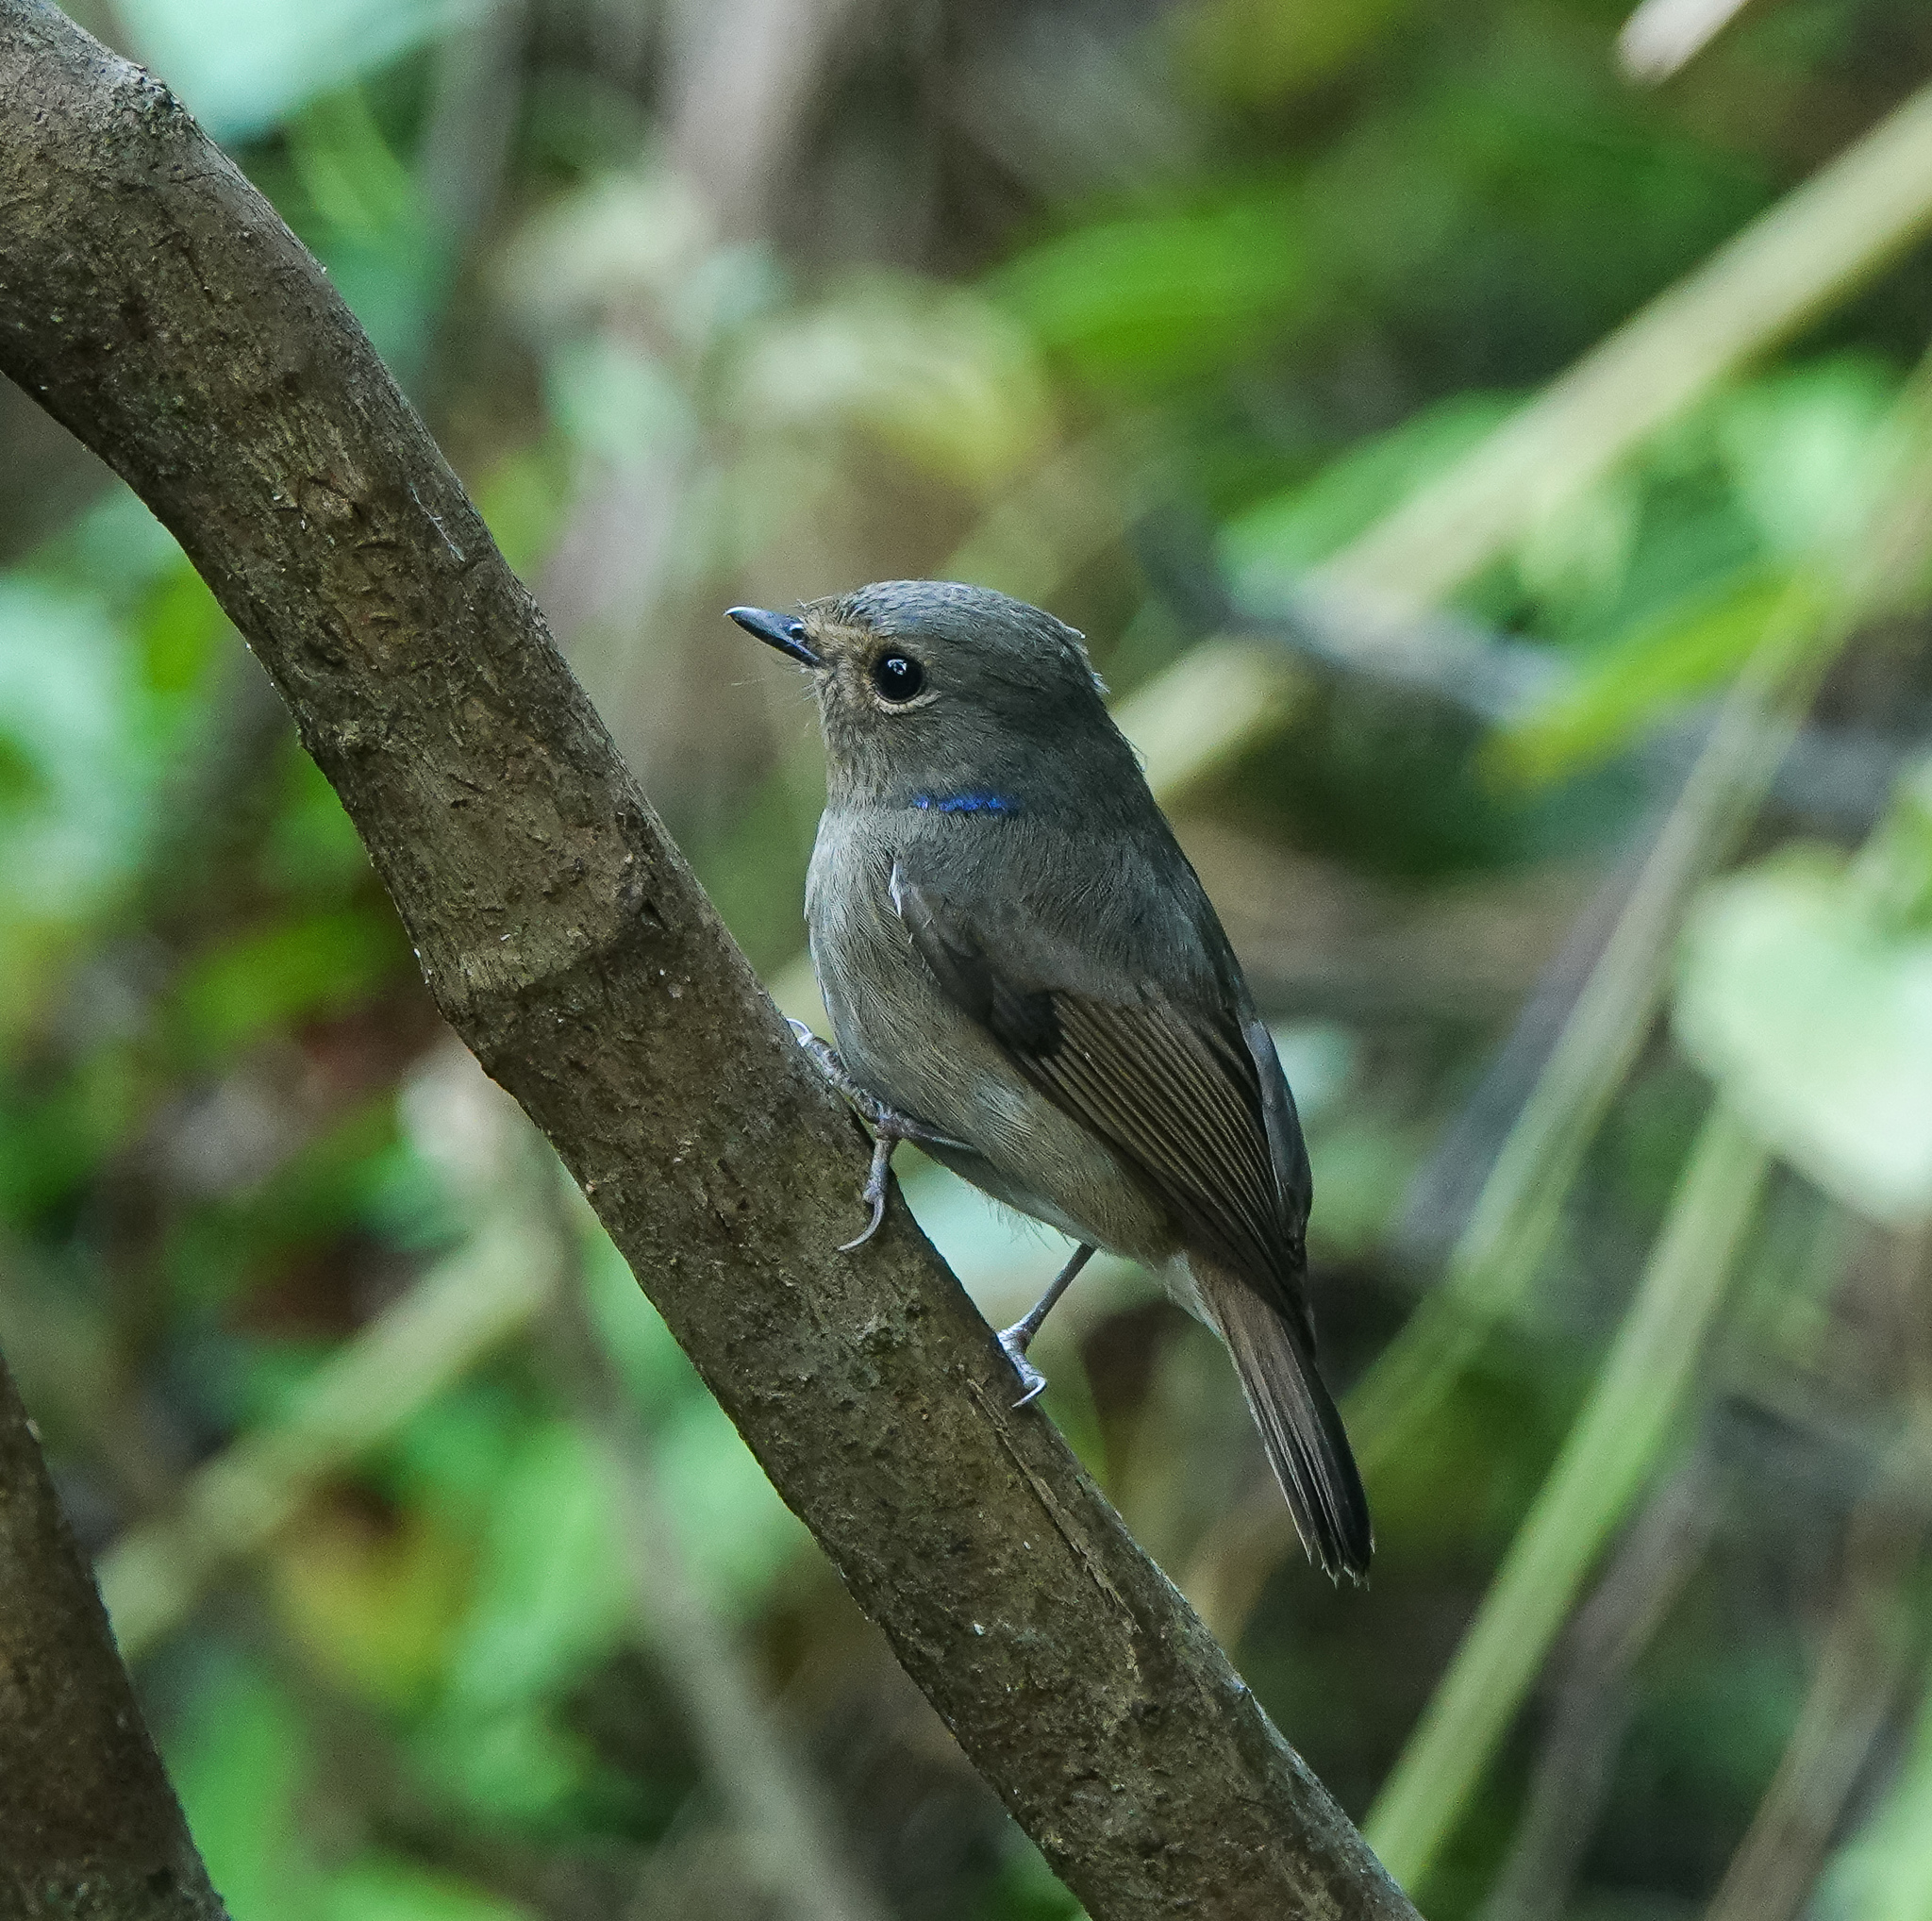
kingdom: Animalia
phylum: Chordata
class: Aves
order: Passeriformes
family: Muscicapidae
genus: Niltava
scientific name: Niltava macgrigoriae
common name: Small niltava
